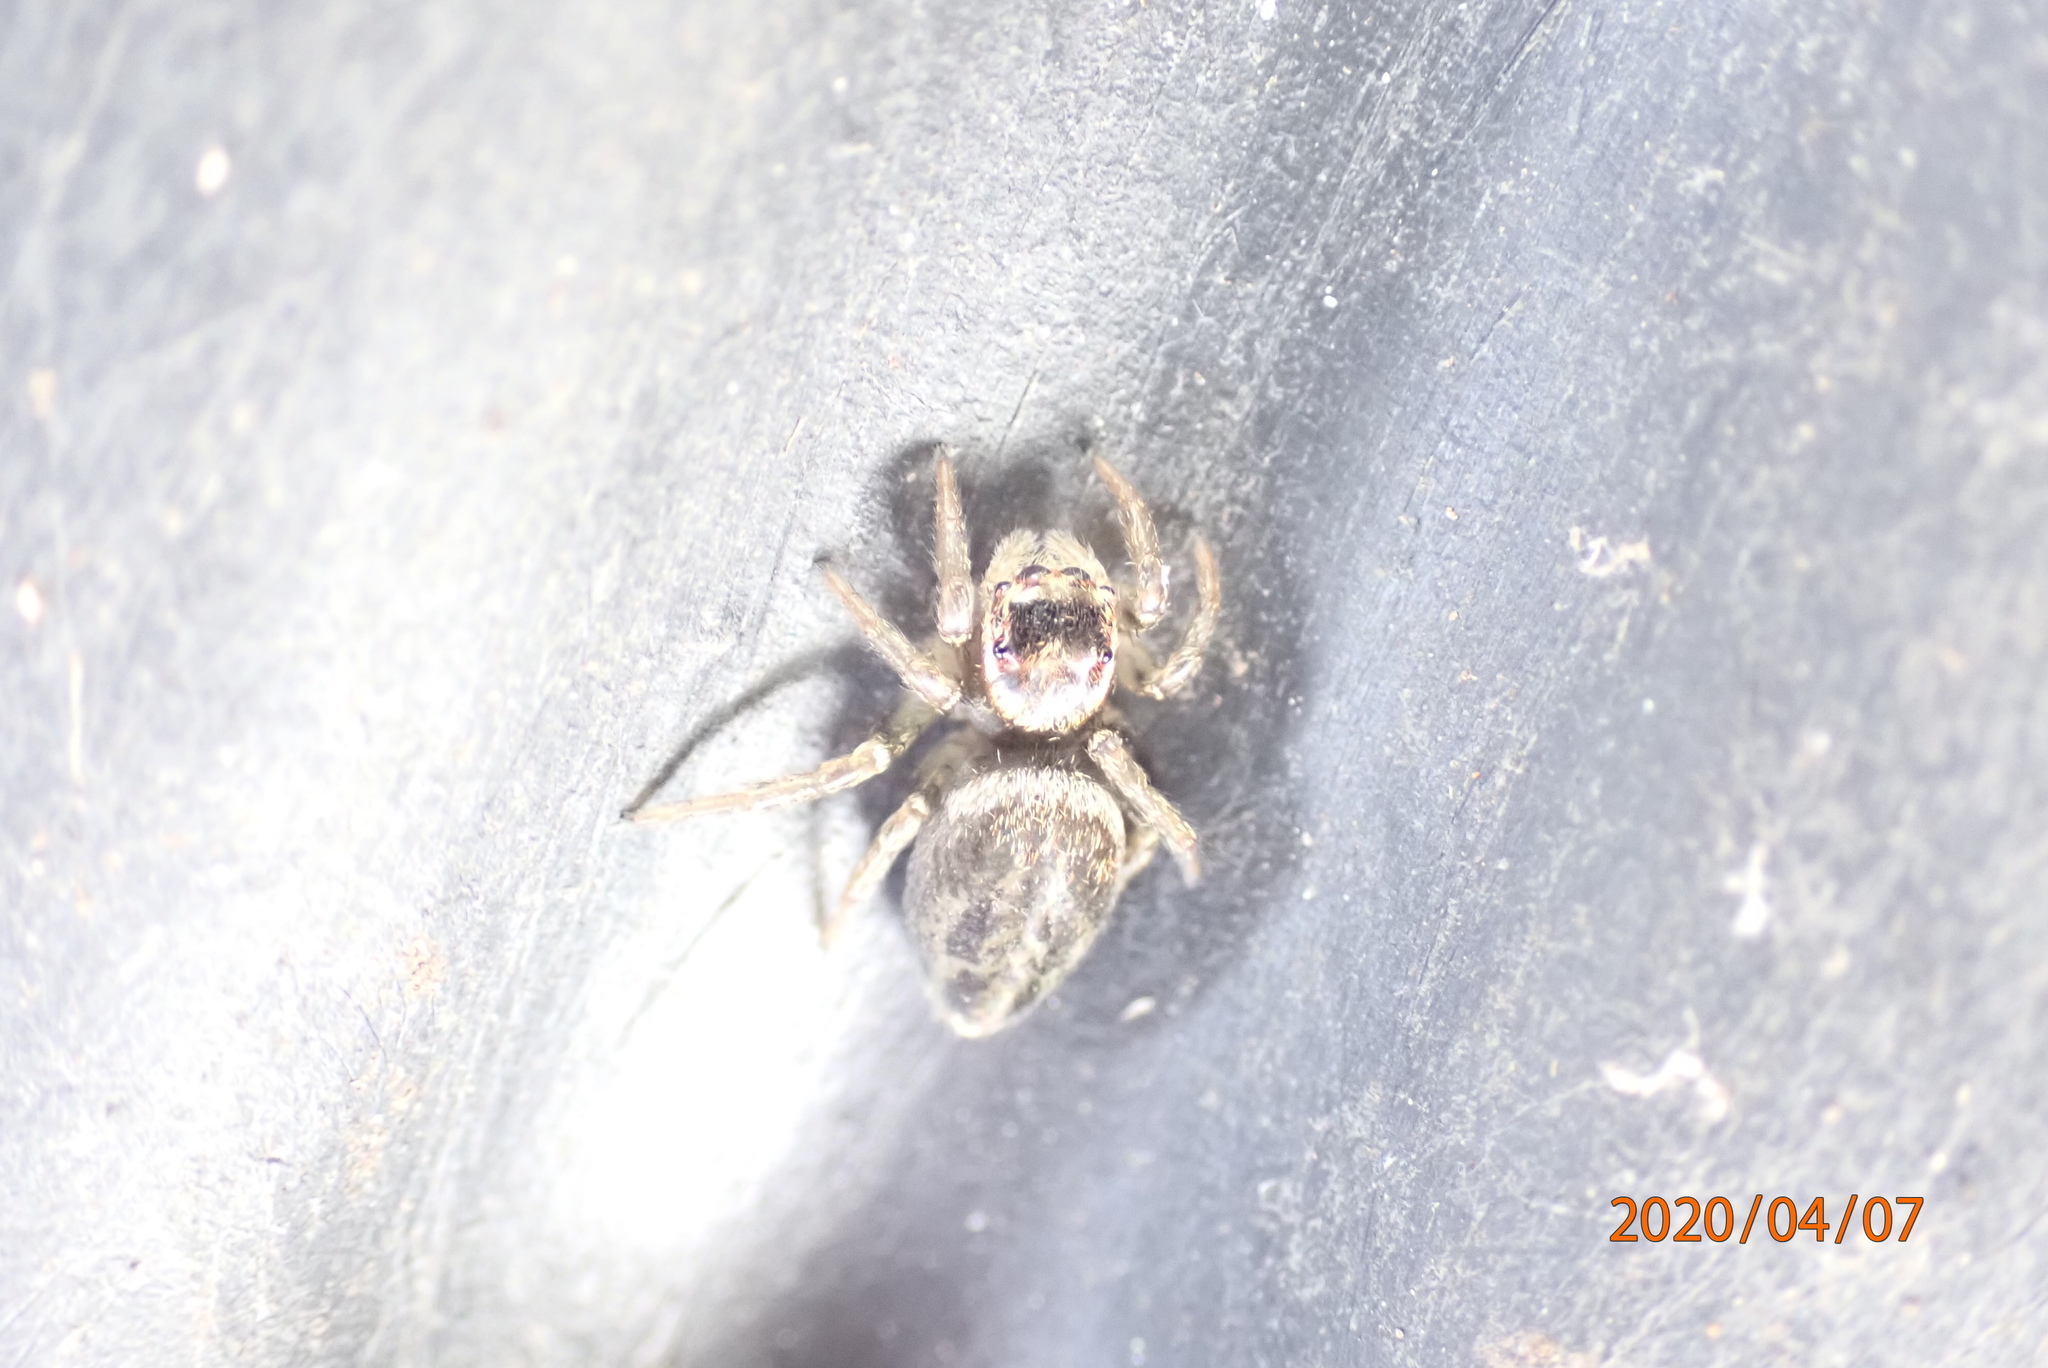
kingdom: Animalia
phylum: Arthropoda
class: Arachnida
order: Araneae
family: Salticidae
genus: Maratus
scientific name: Maratus griseus
